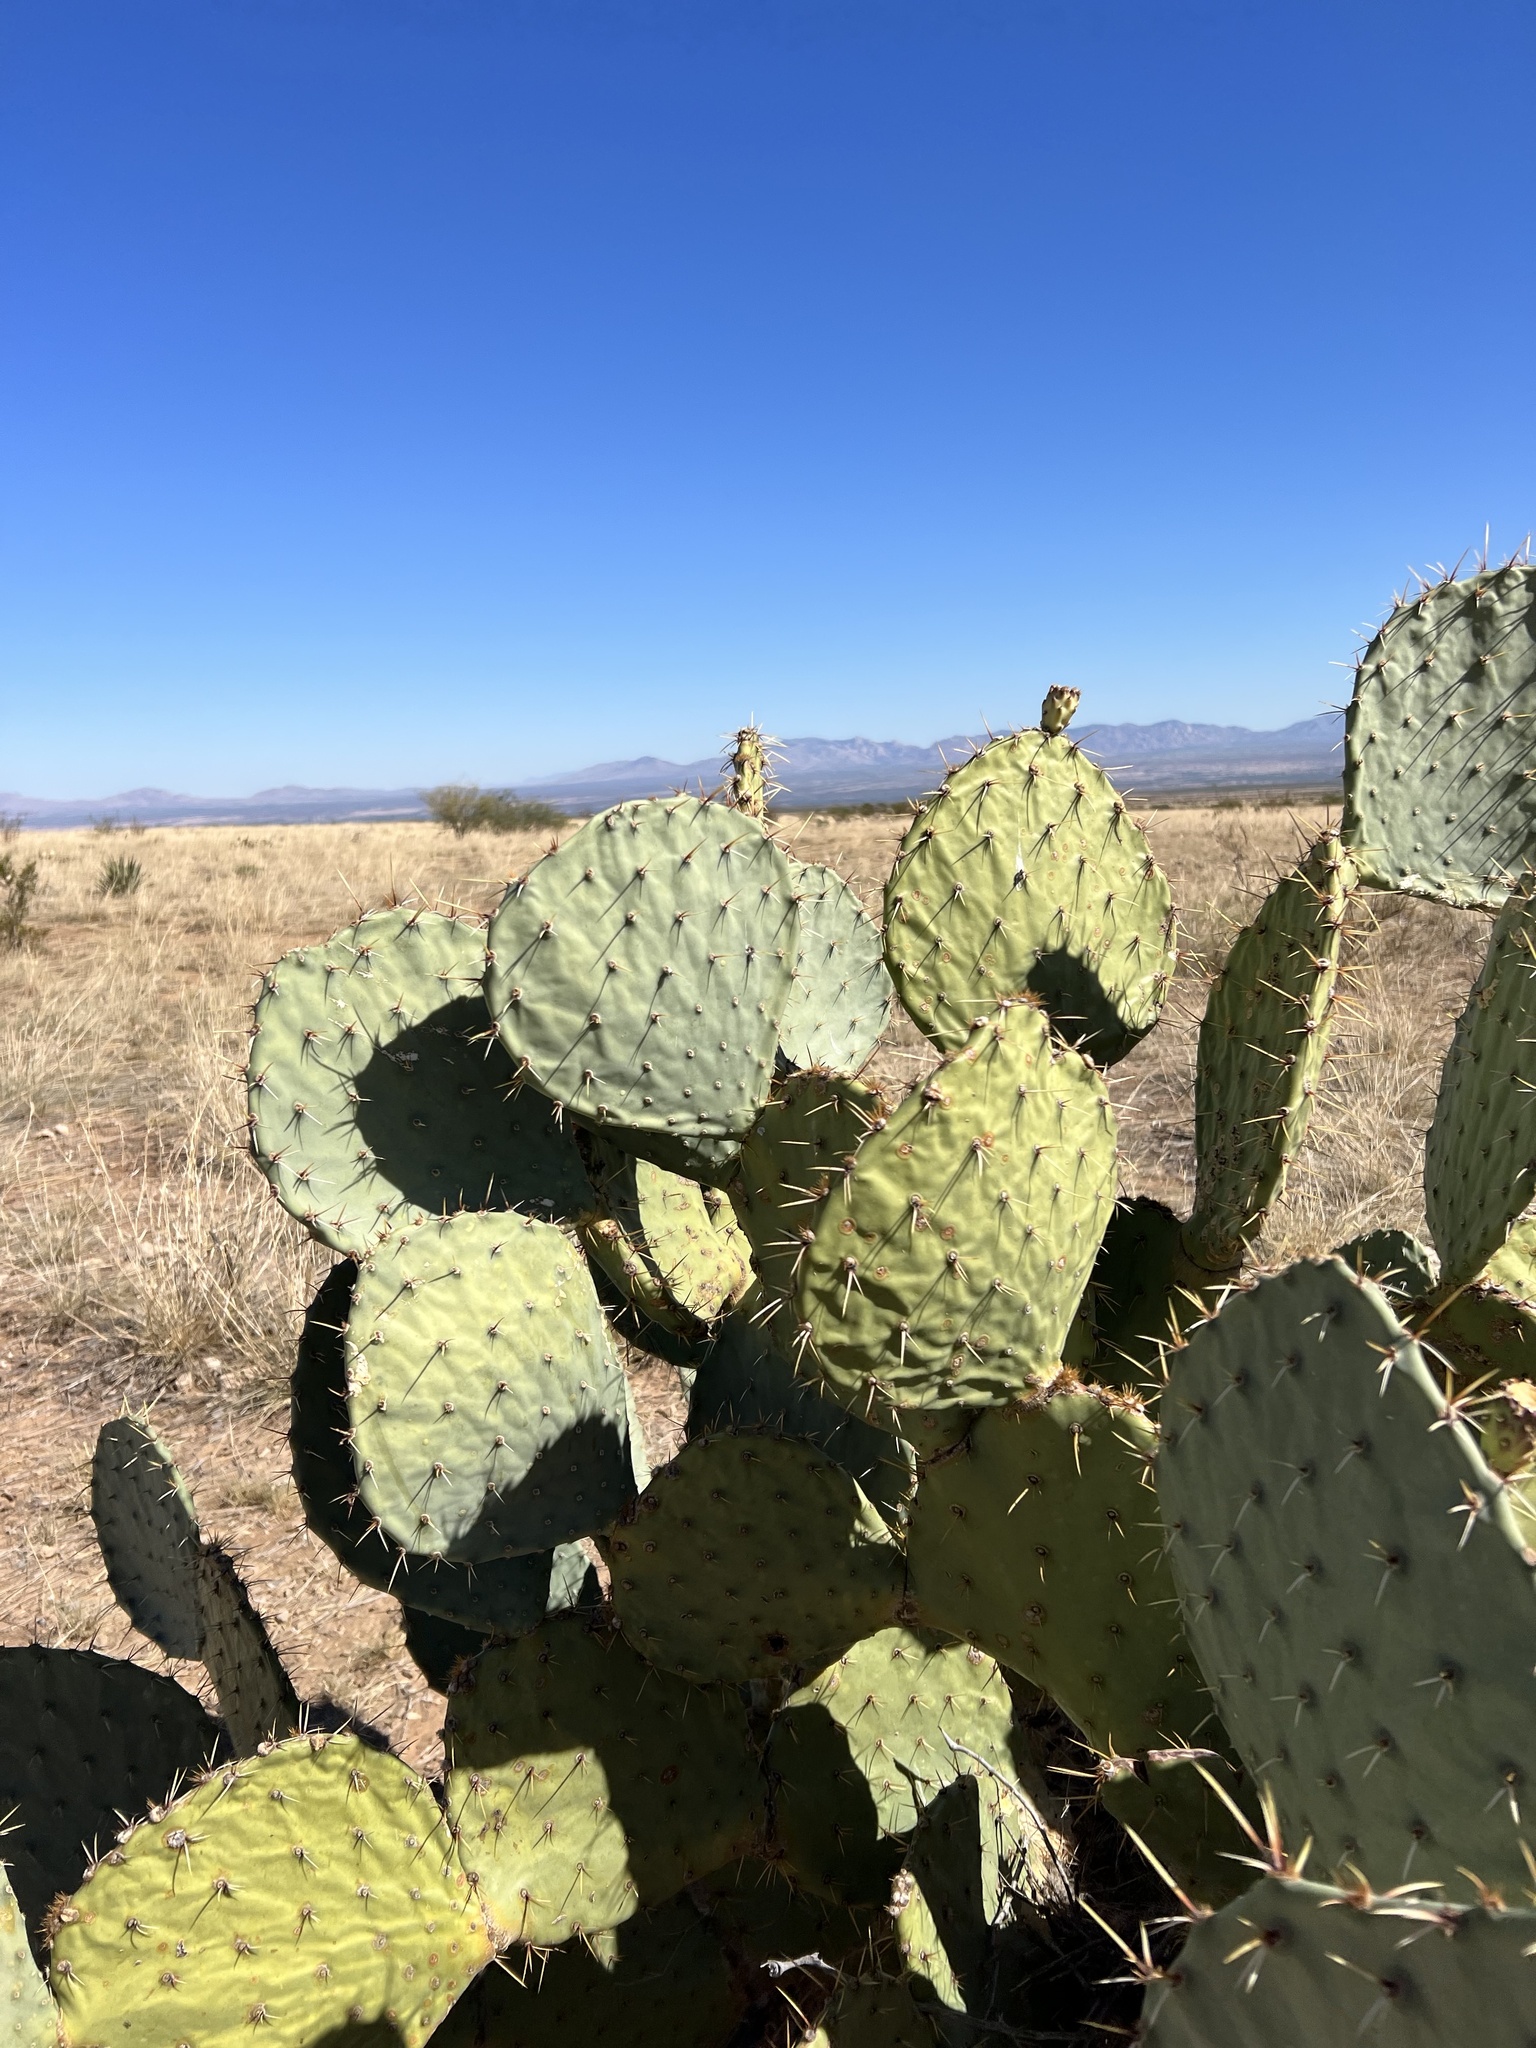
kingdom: Plantae
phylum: Tracheophyta
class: Magnoliopsida
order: Caryophyllales
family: Cactaceae
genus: Opuntia
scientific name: Opuntia engelmannii
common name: Cactus-apple
